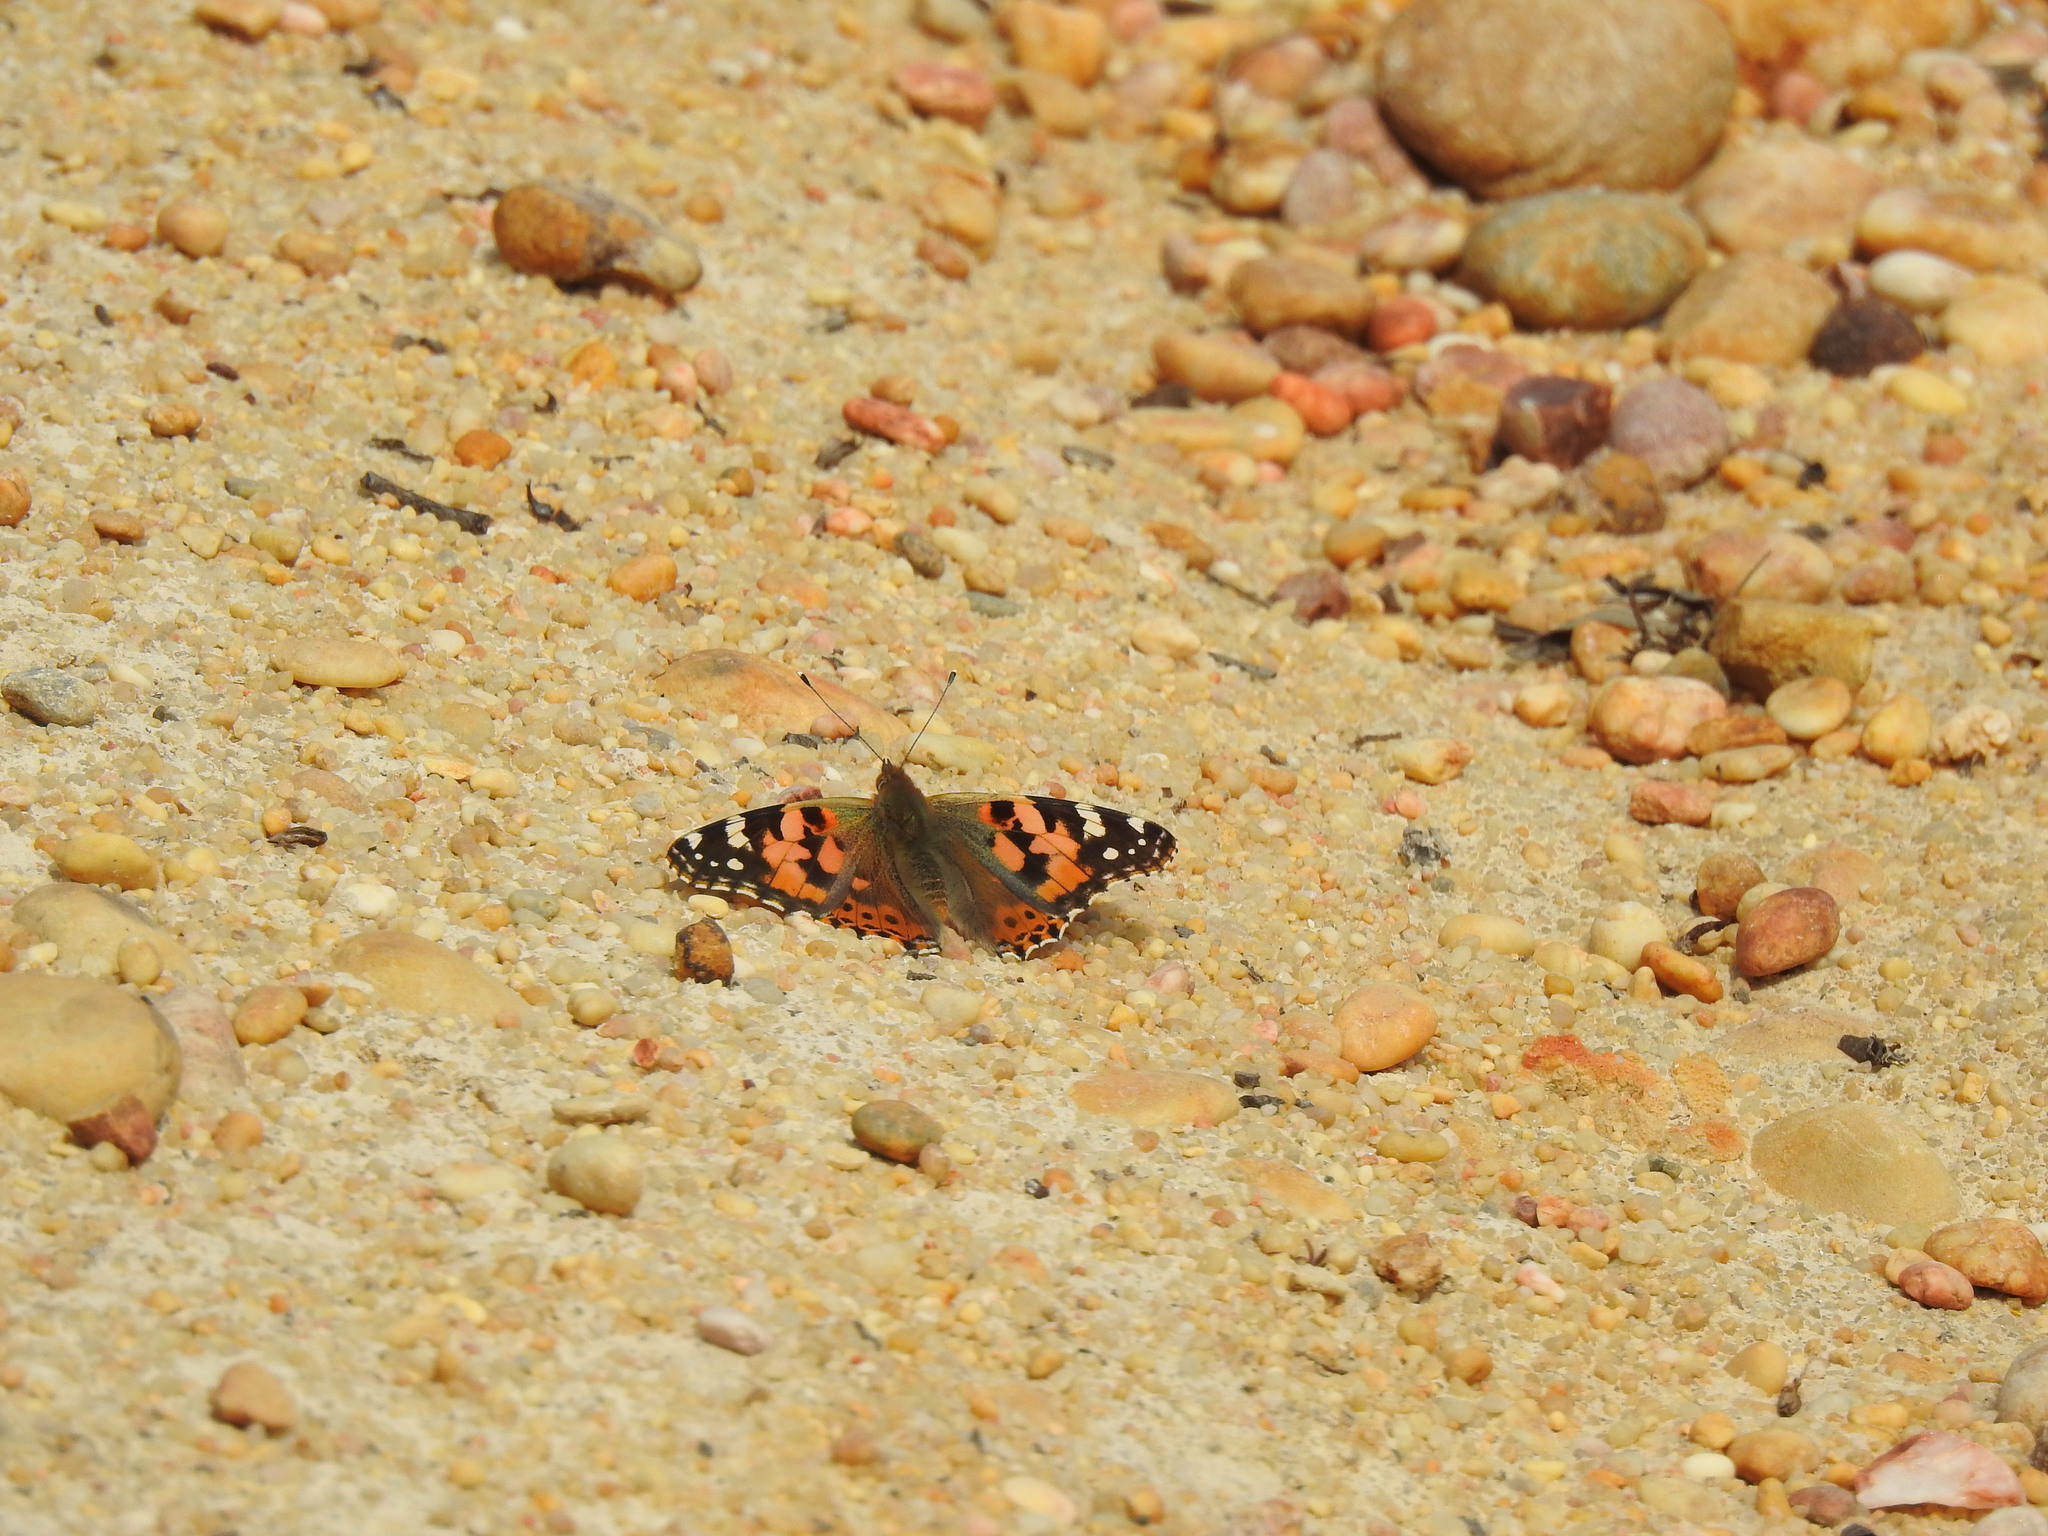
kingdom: Animalia
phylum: Arthropoda
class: Insecta
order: Lepidoptera
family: Nymphalidae
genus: Vanessa
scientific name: Vanessa cardui
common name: Painted lady
